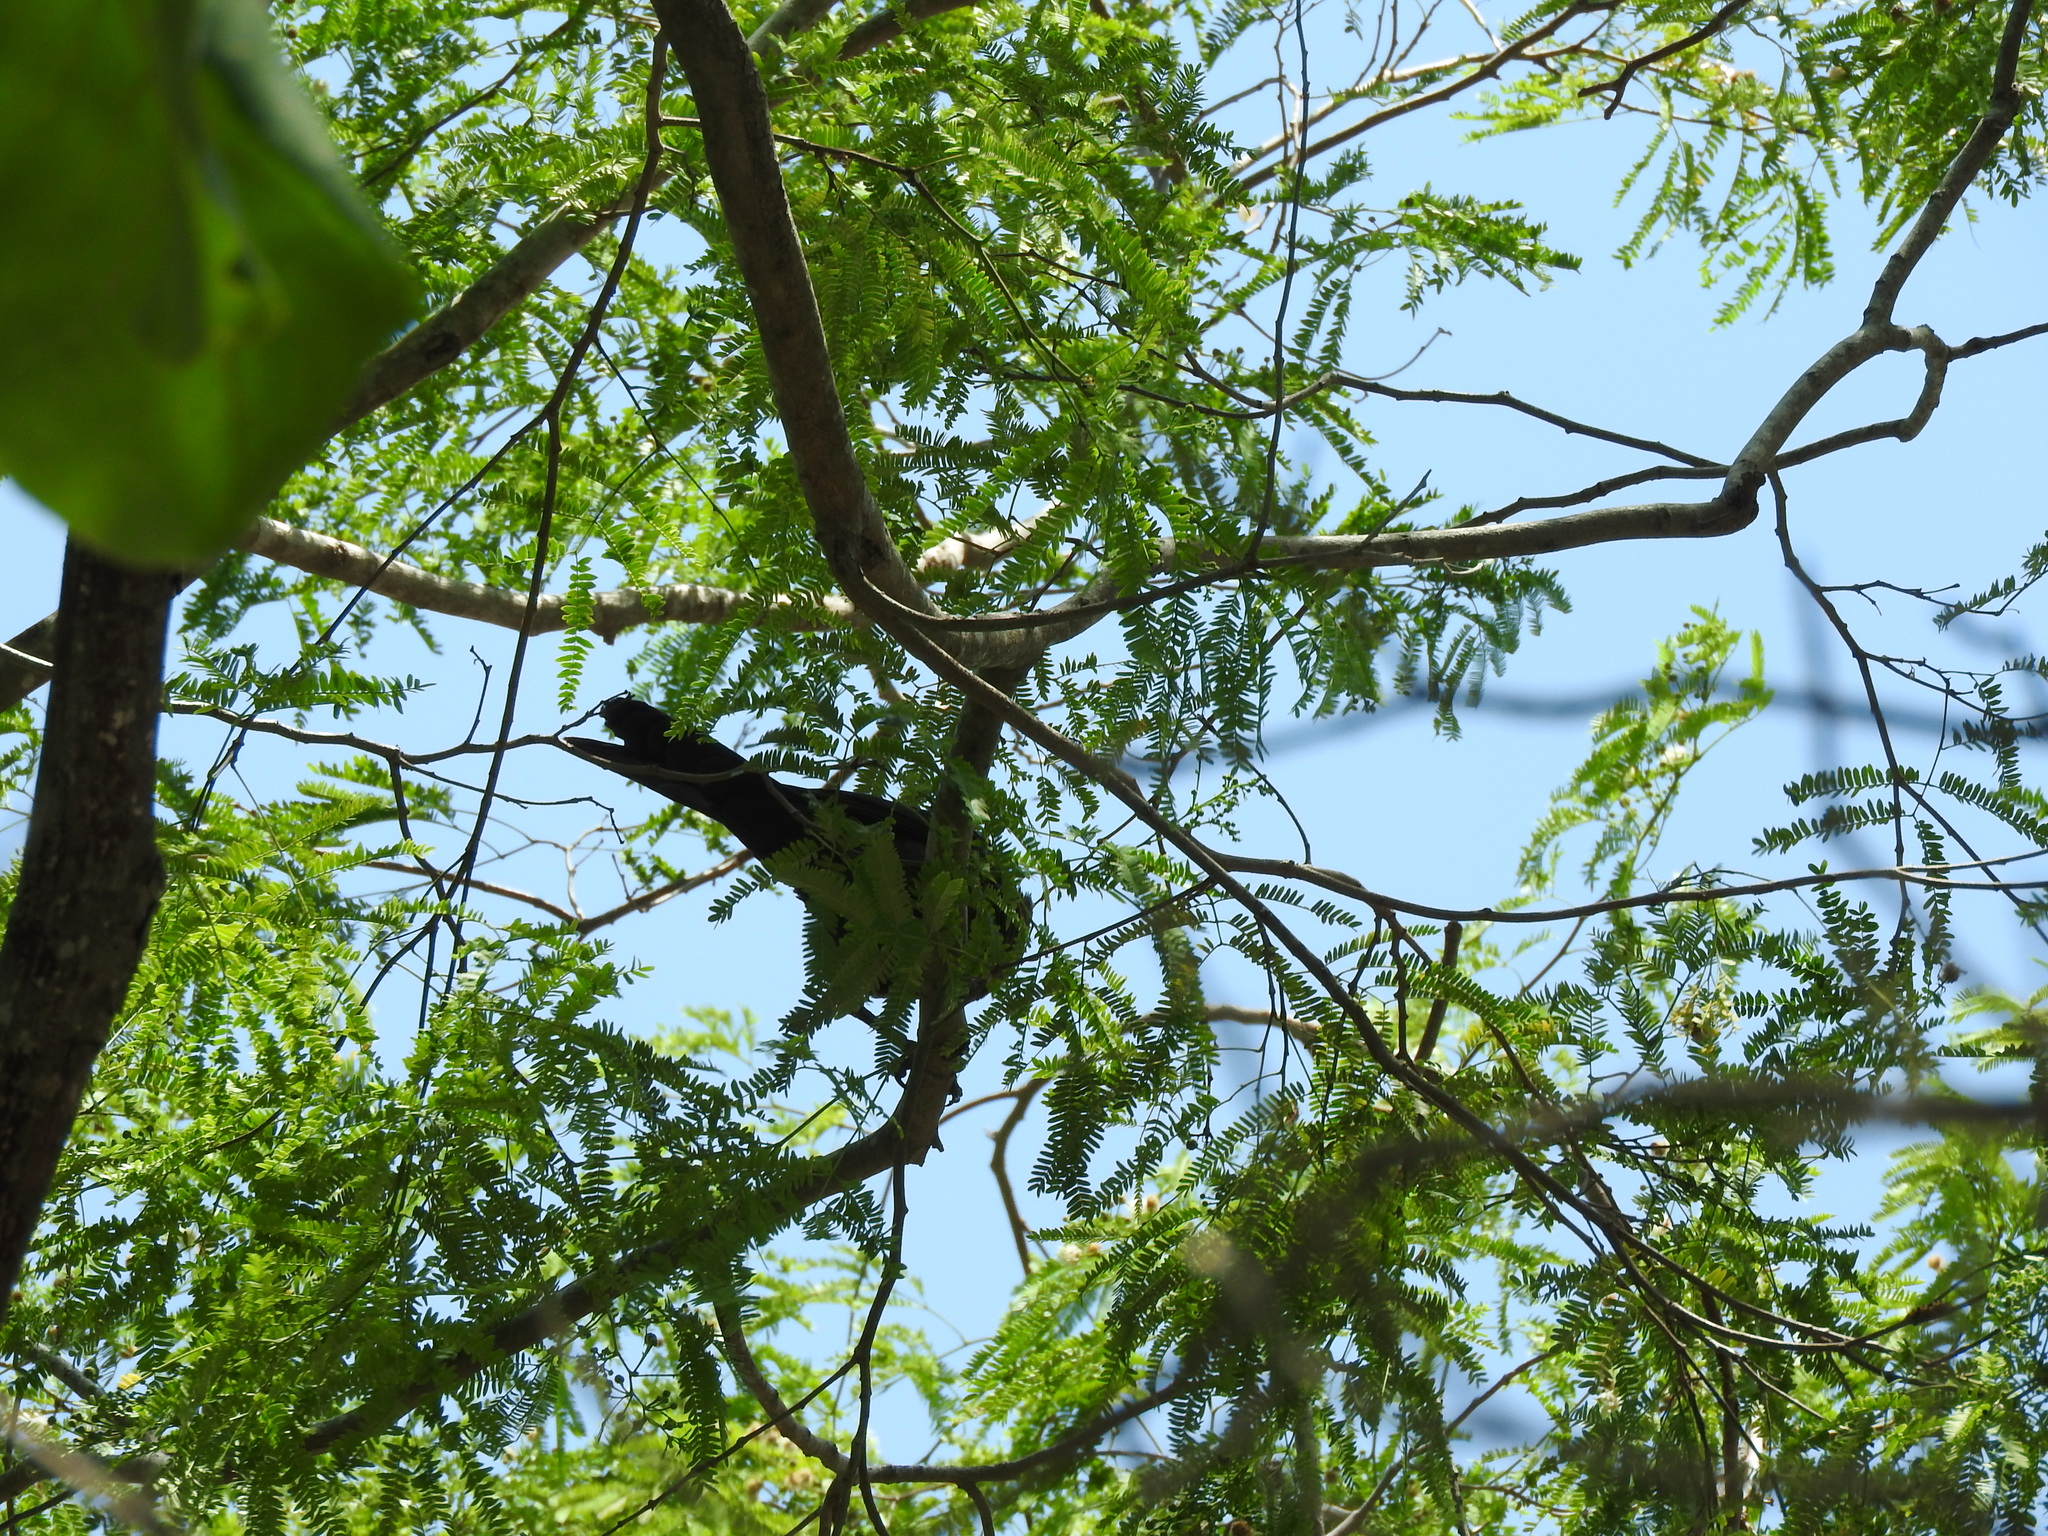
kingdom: Animalia
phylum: Chordata
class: Aves
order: Passeriformes
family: Icteridae
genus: Quiscalus
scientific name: Quiscalus mexicanus
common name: Great-tailed grackle
